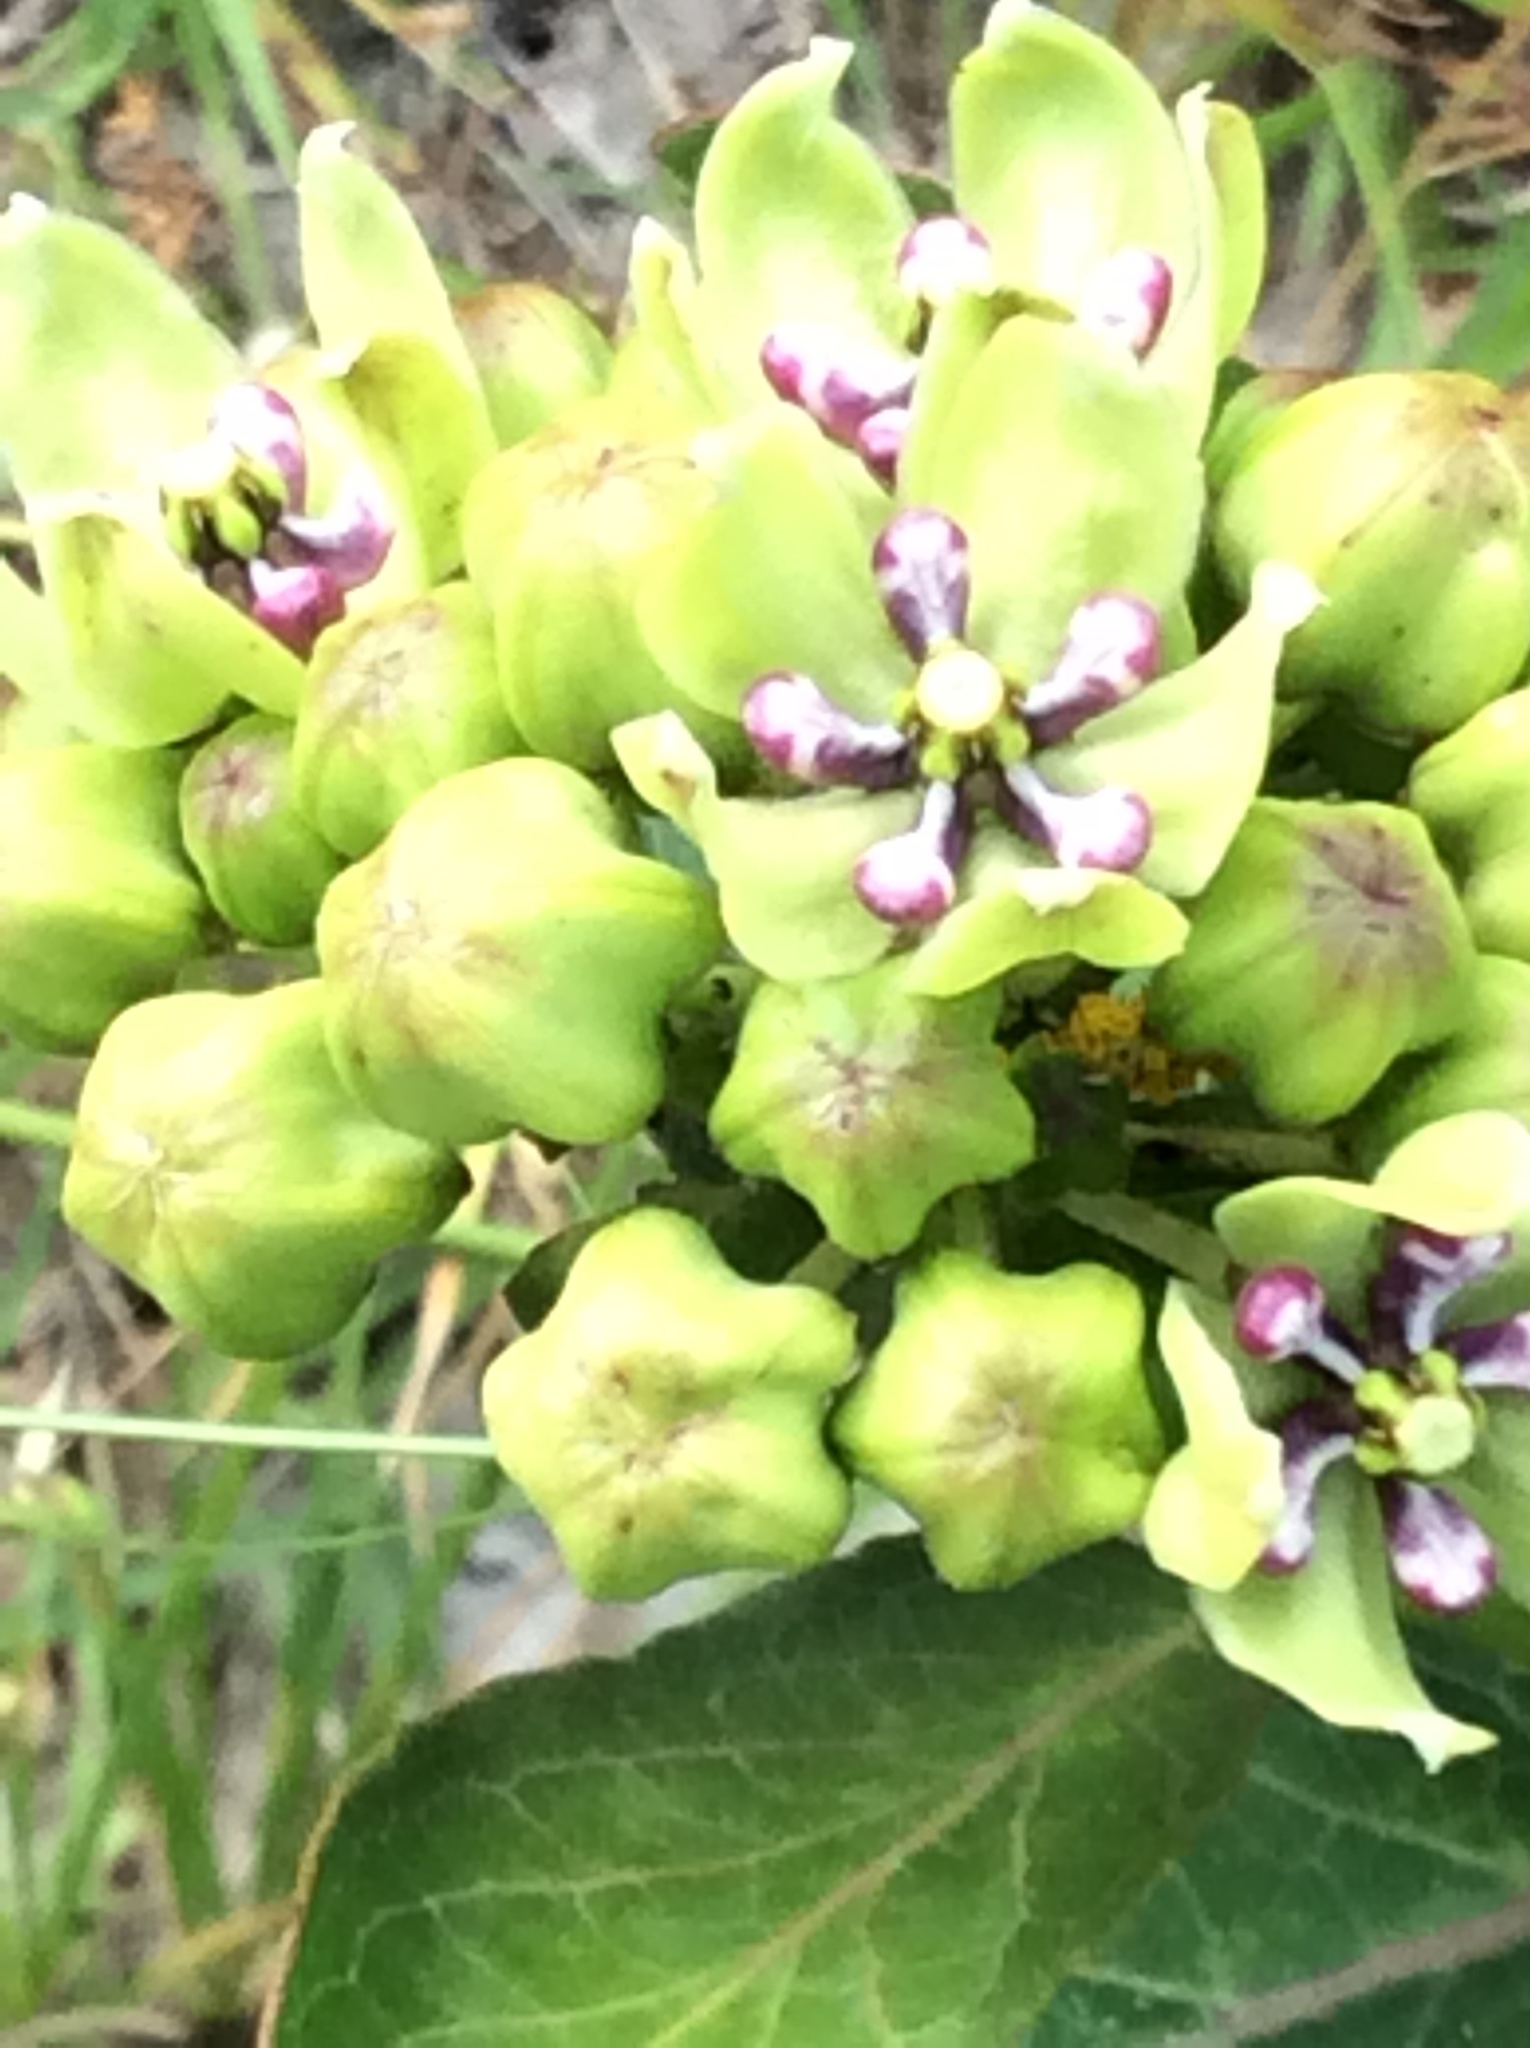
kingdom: Plantae
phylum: Tracheophyta
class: Magnoliopsida
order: Gentianales
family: Apocynaceae
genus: Asclepias
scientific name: Asclepias viridis
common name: Antelope-horns
